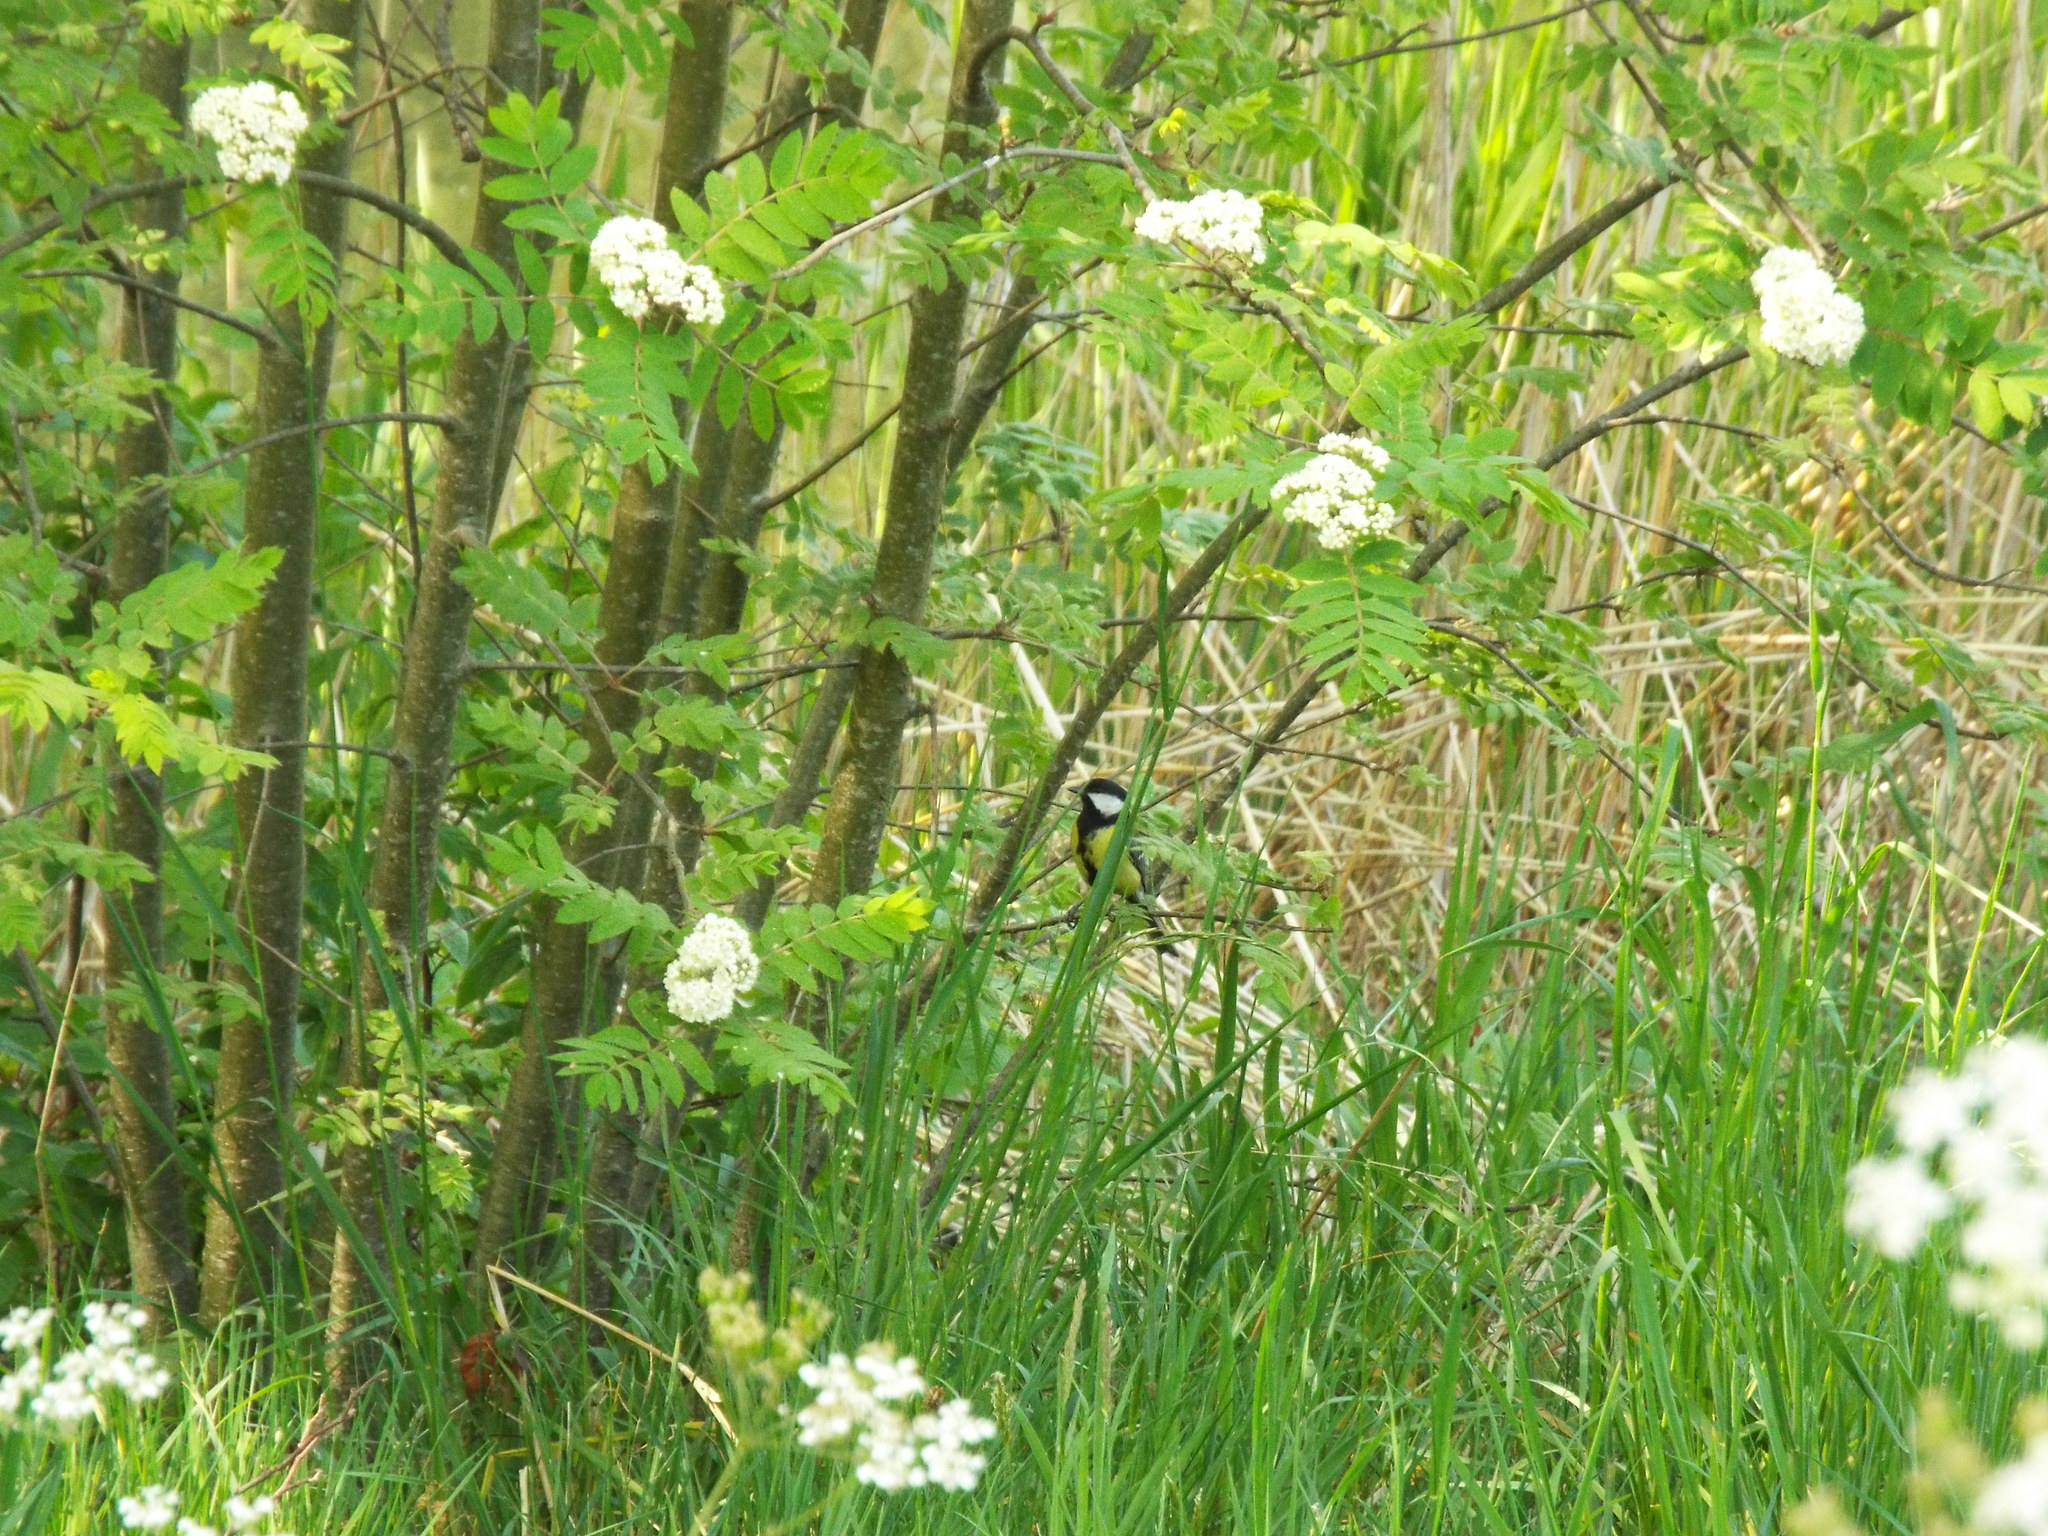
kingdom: Animalia
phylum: Chordata
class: Aves
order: Passeriformes
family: Paridae
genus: Parus
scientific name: Parus major
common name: Great tit
